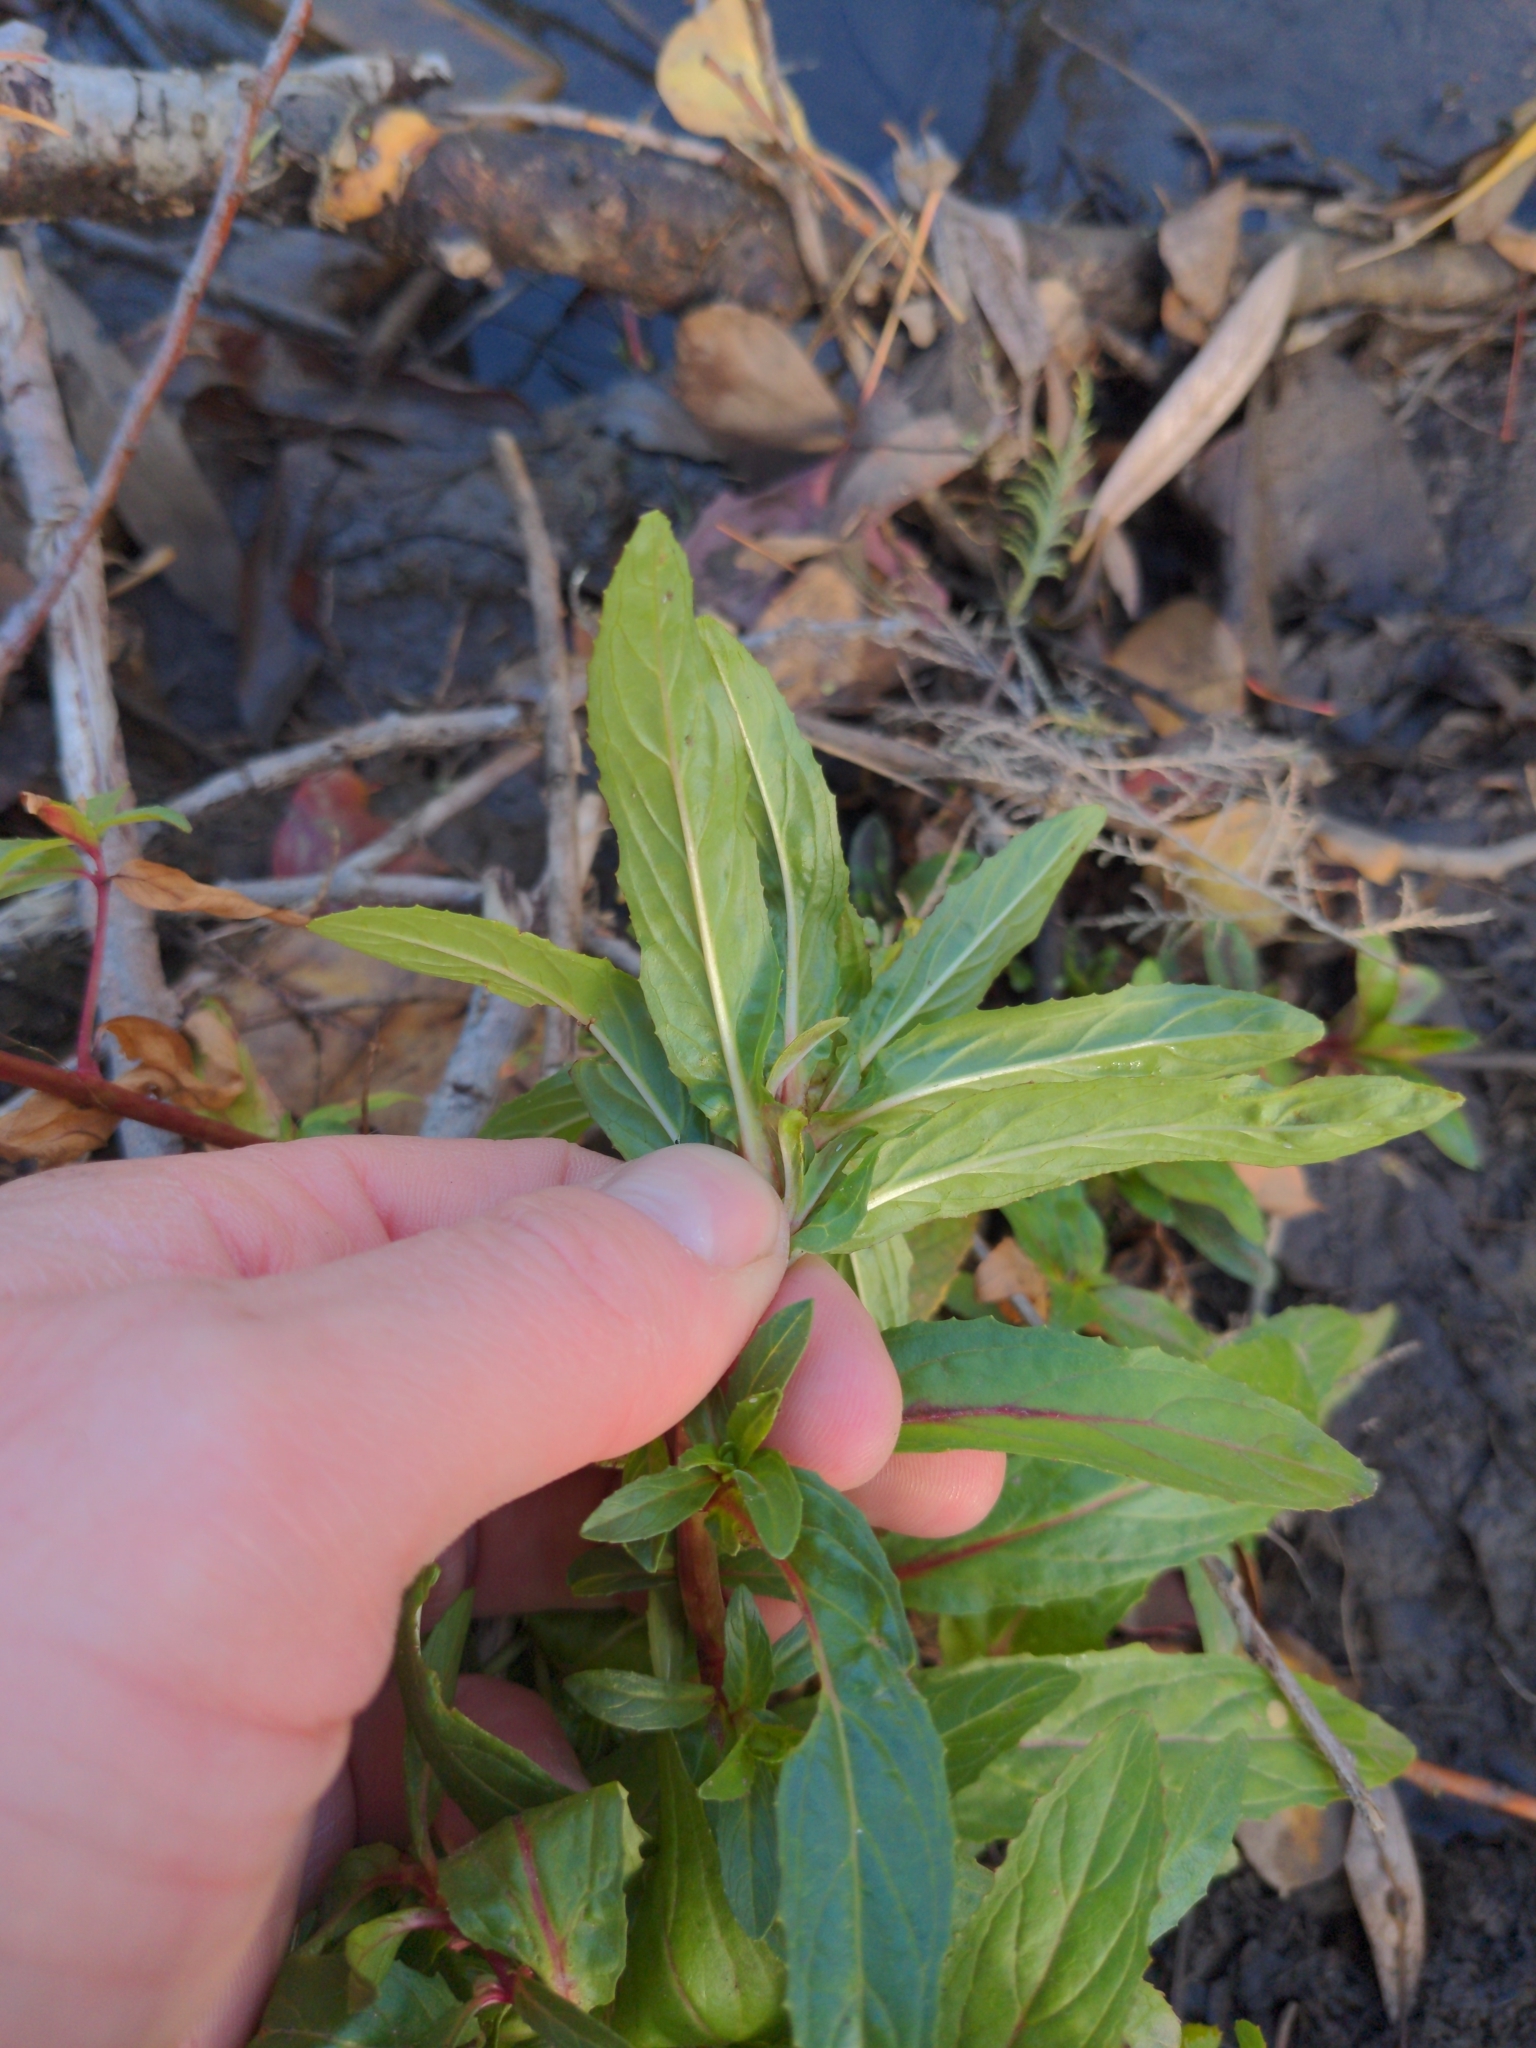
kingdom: Plantae
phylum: Tracheophyta
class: Magnoliopsida
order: Myrtales
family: Onagraceae
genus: Epilobium
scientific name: Epilobium ciliatum
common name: American willowherb
